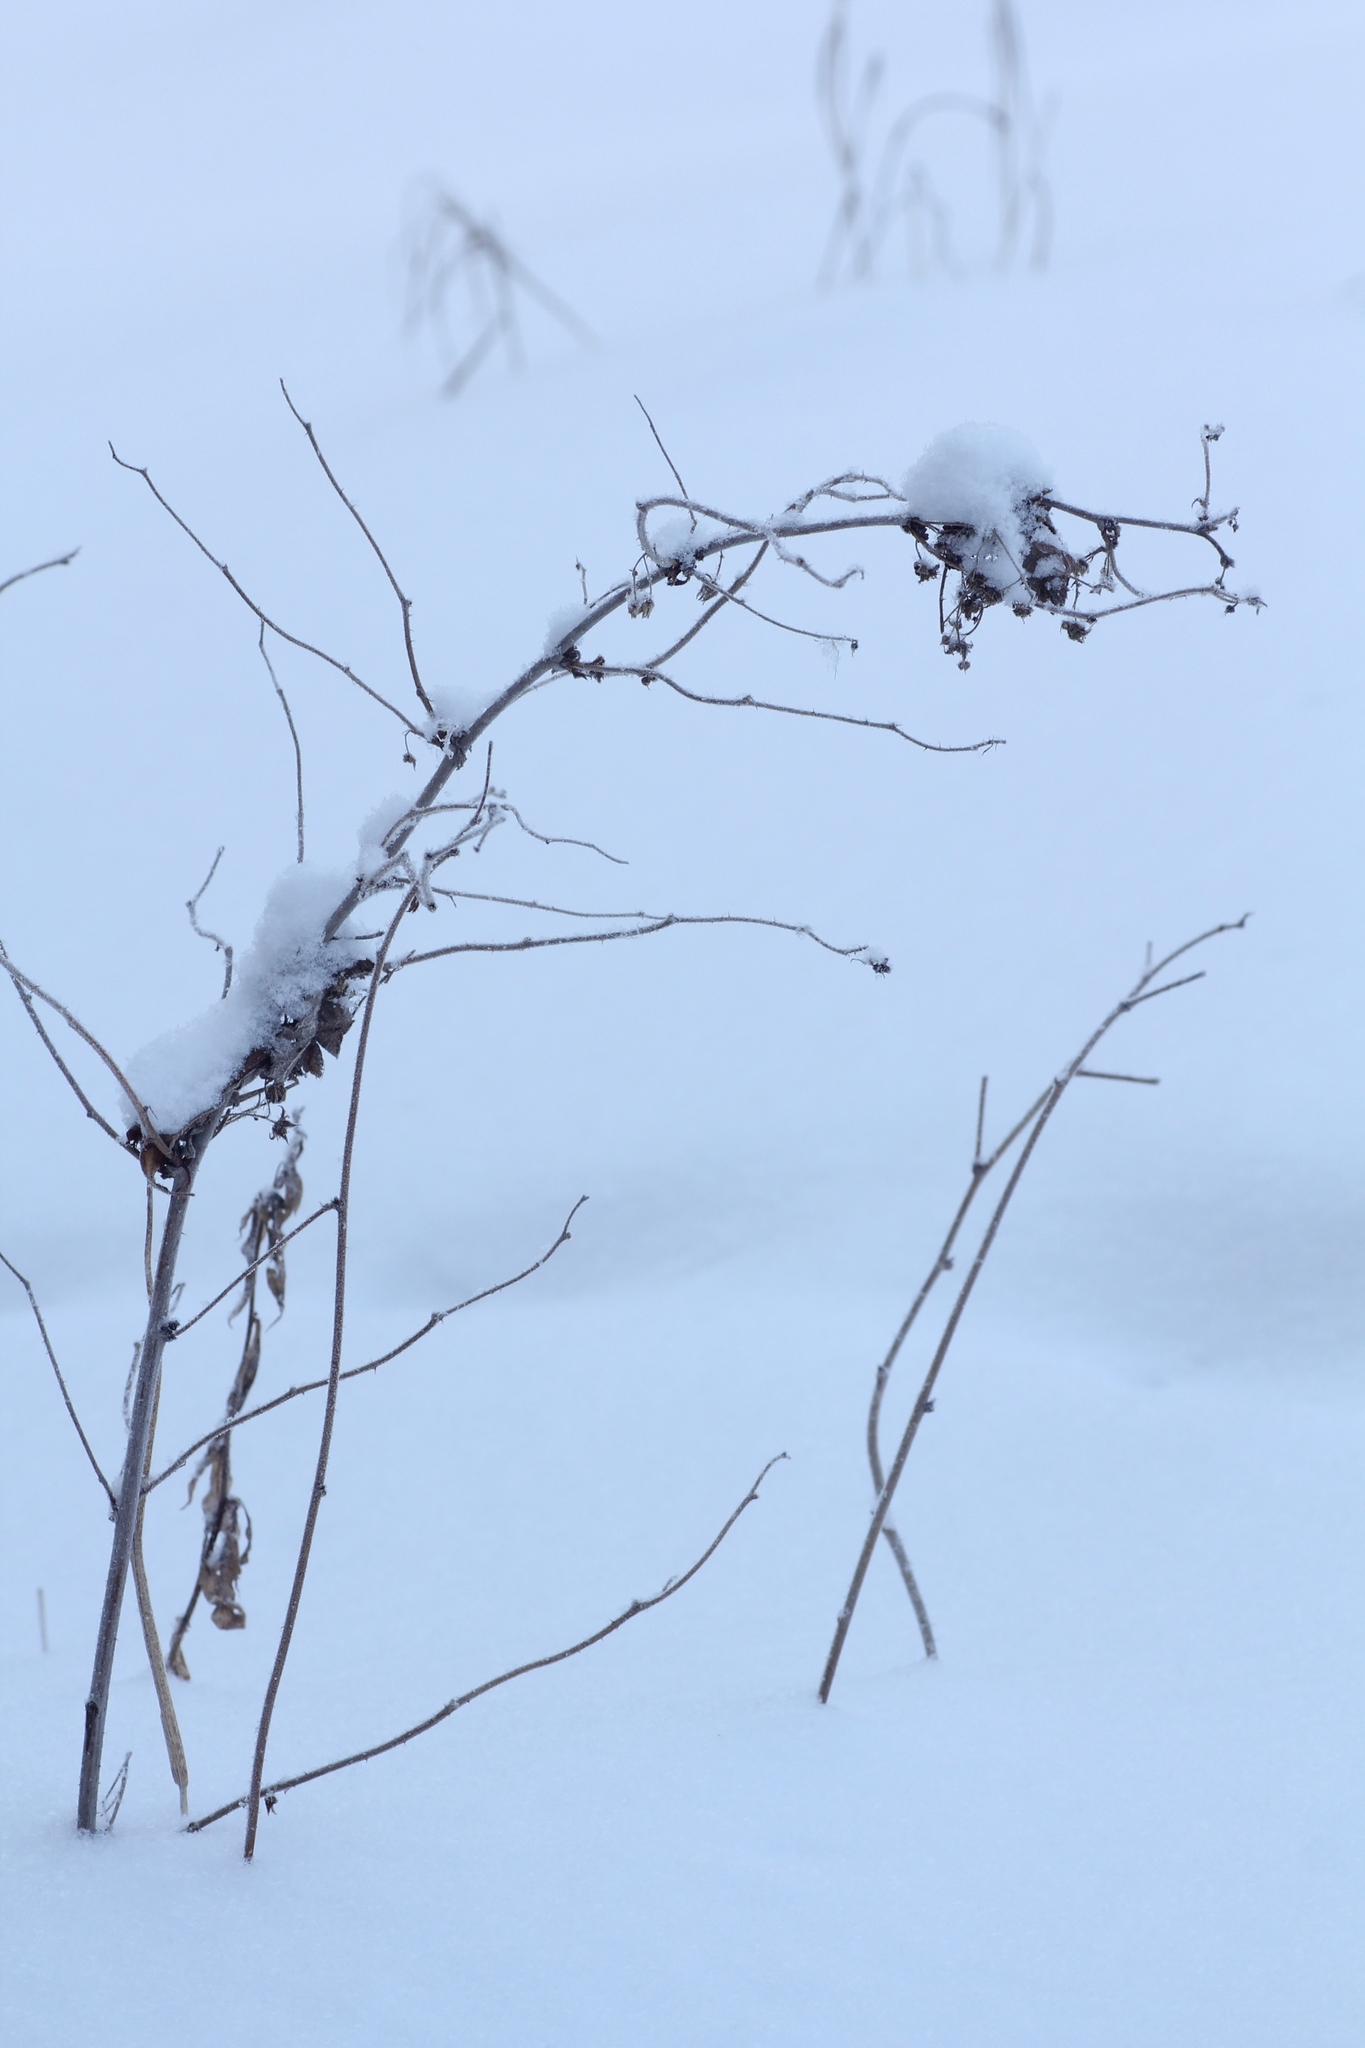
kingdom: Plantae
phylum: Tracheophyta
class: Magnoliopsida
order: Rosales
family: Rosaceae
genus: Rubus
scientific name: Rubus idaeus
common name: Raspberry
